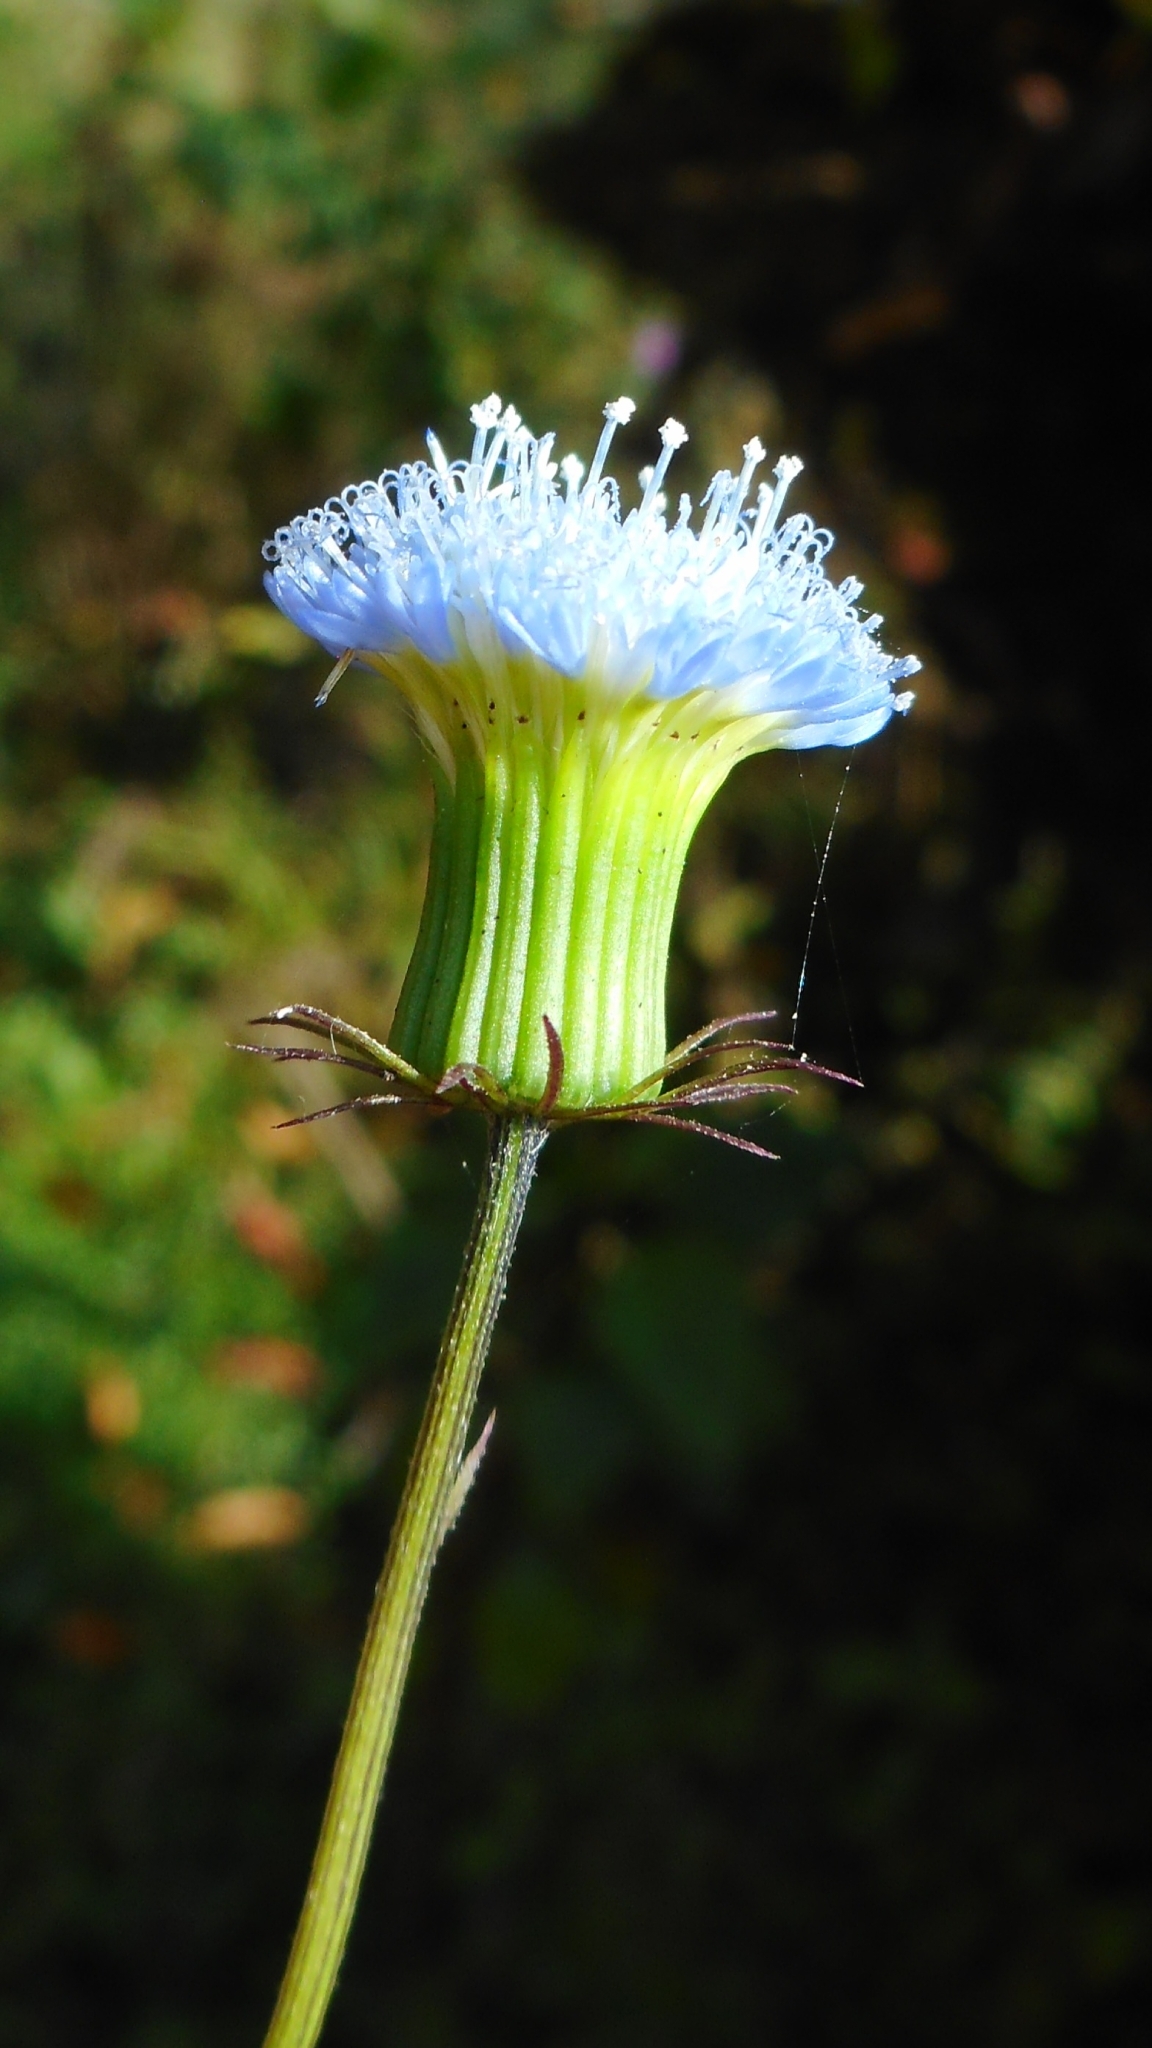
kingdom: Plantae
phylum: Tracheophyta
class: Magnoliopsida
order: Asterales
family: Asteraceae
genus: Crassocephalum
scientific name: Crassocephalum rubens
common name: Yoruban bologi
